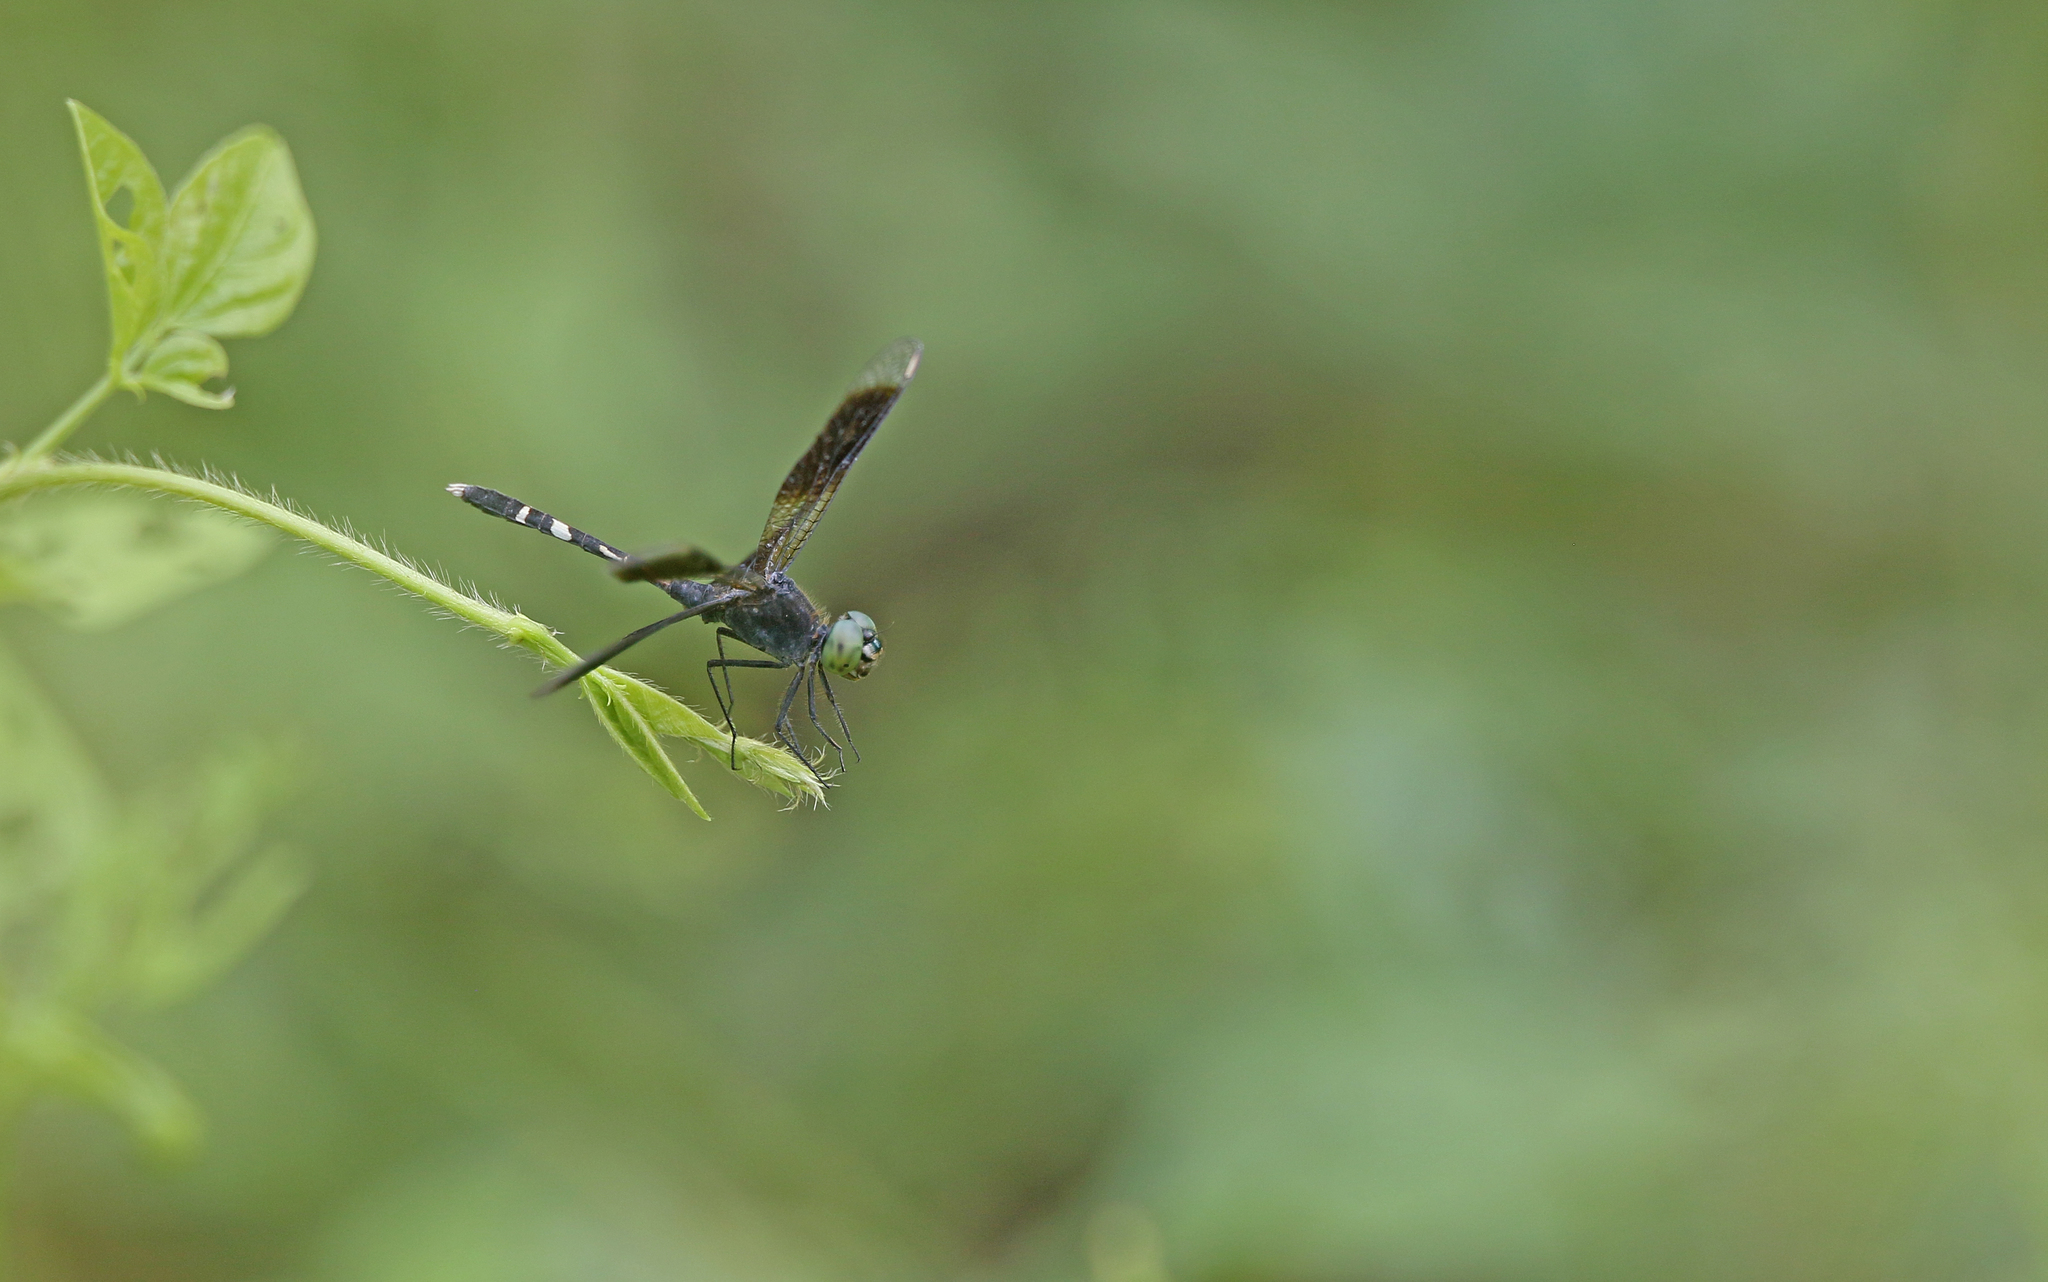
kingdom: Animalia
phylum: Arthropoda
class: Insecta
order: Odonata
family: Libellulidae
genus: Erythrodiplax
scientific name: Erythrodiplax attenuata
